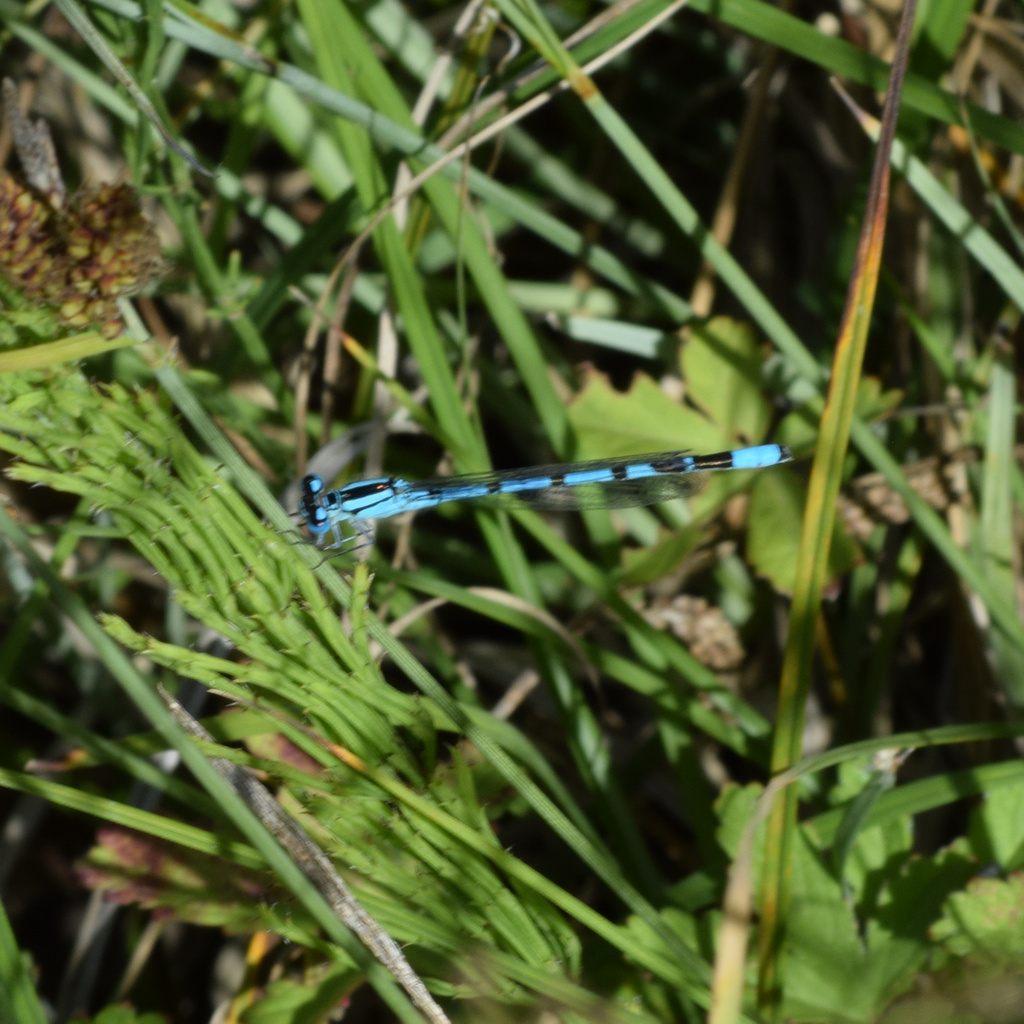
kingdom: Animalia
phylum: Arthropoda
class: Insecta
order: Odonata
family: Coenagrionidae
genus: Enallagma
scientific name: Enallagma cyathigerum
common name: Common blue damselfly
